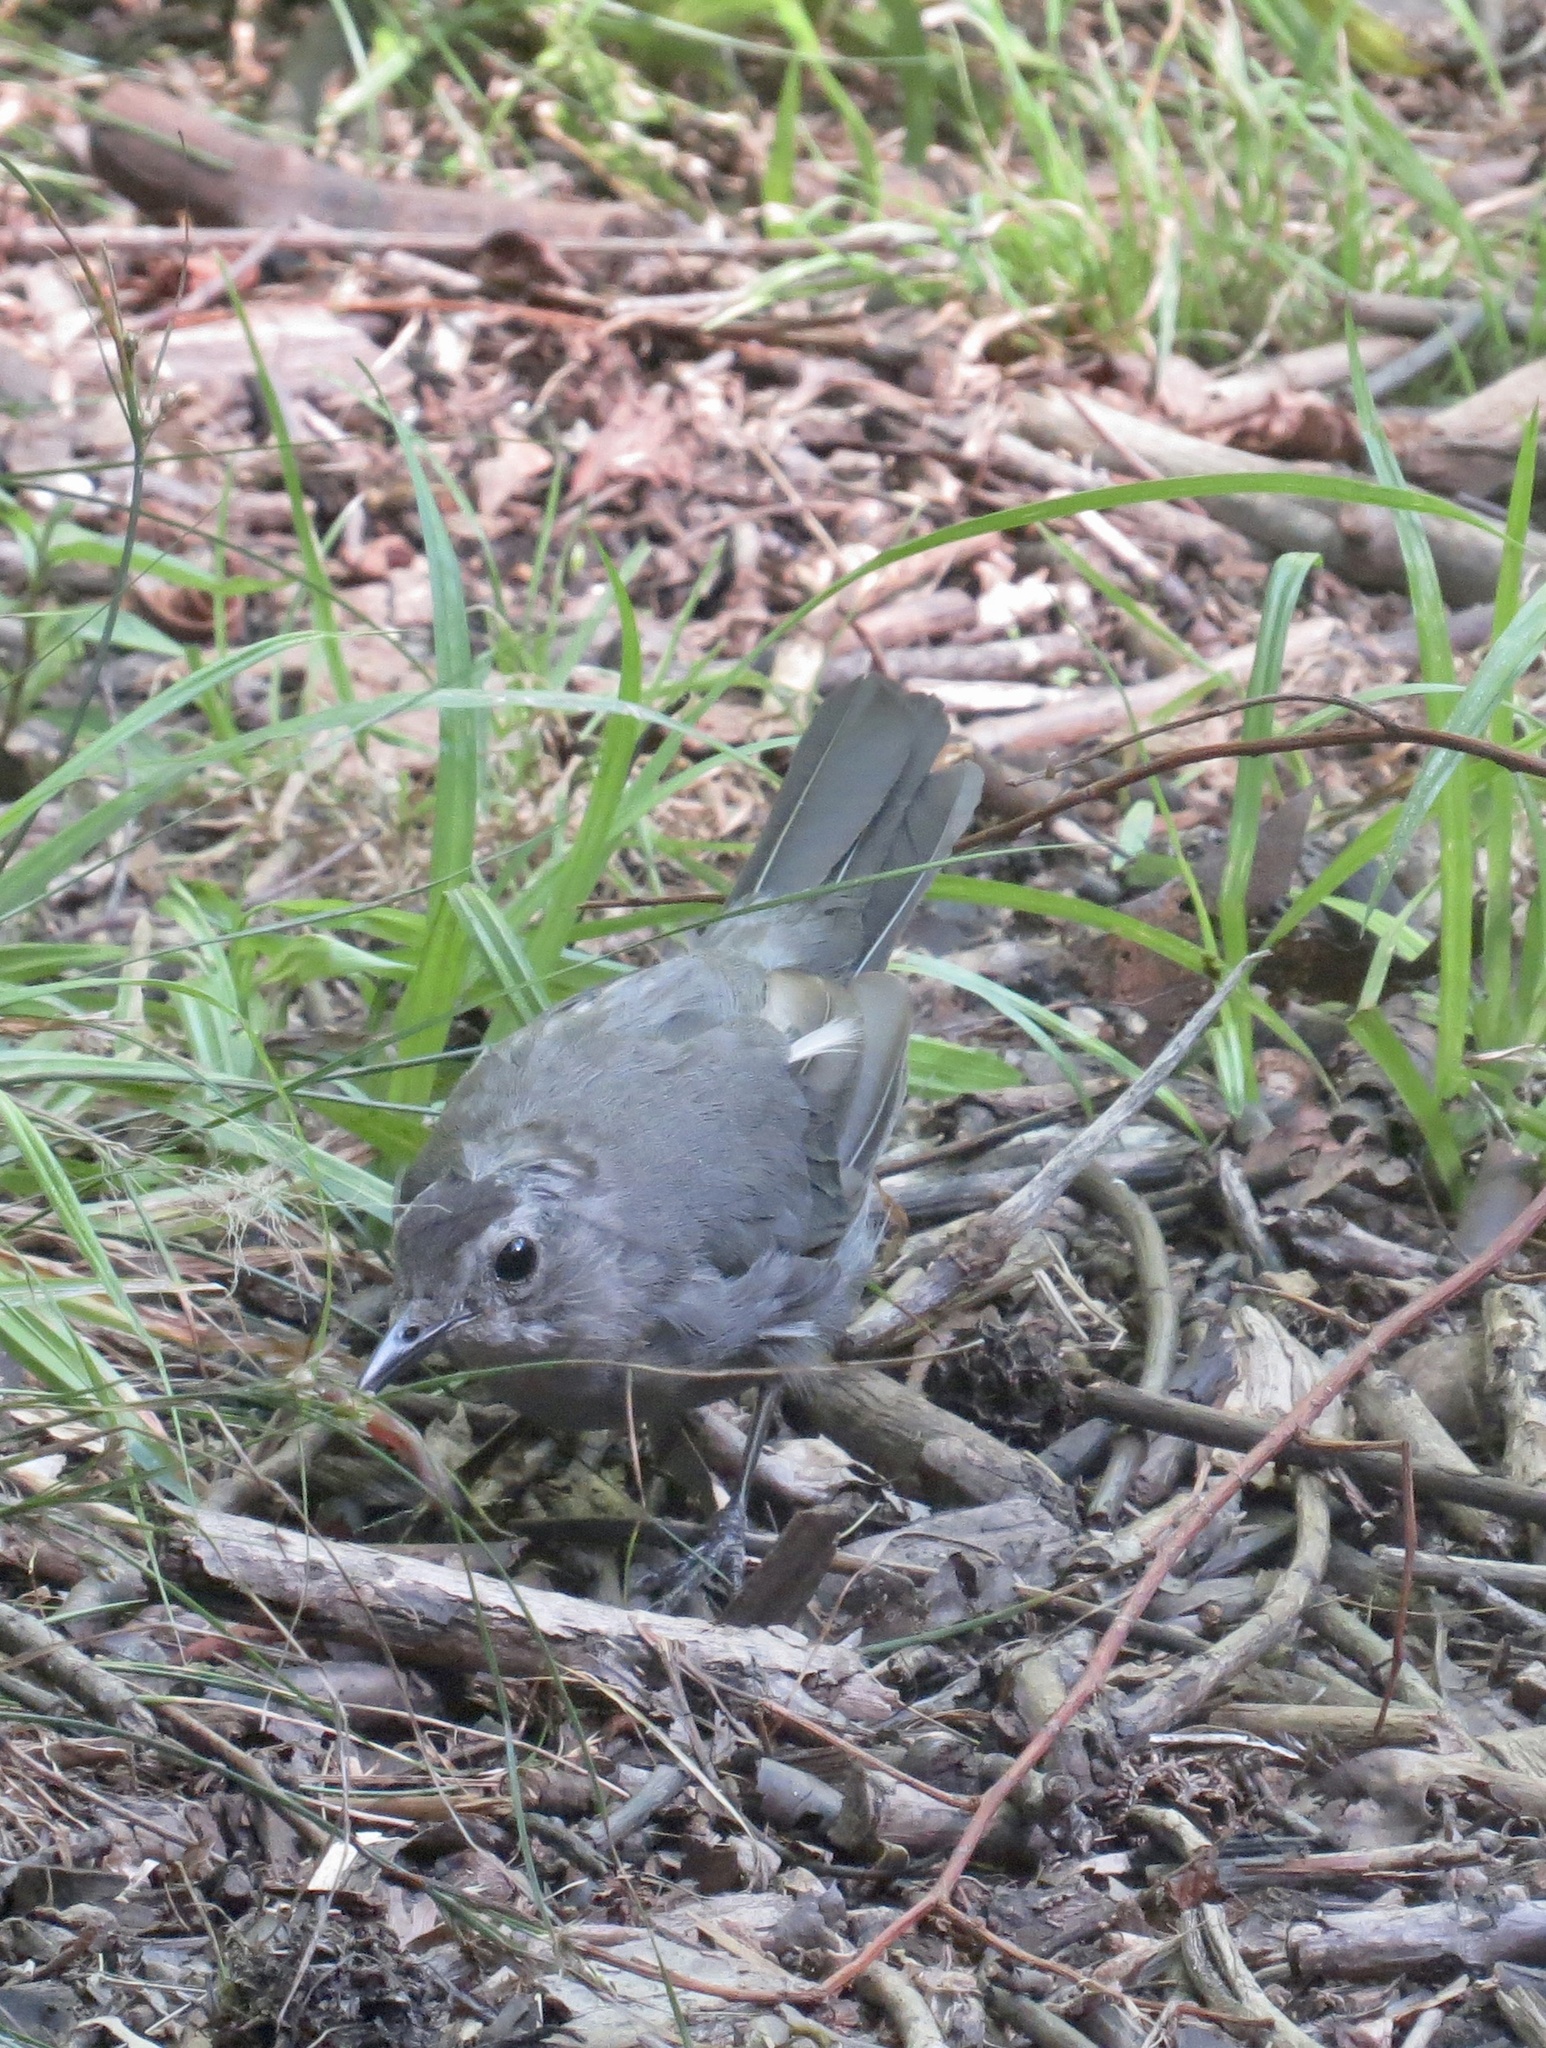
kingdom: Animalia
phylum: Chordata
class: Aves
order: Passeriformes
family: Mimidae
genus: Dumetella
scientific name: Dumetella carolinensis
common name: Gray catbird
